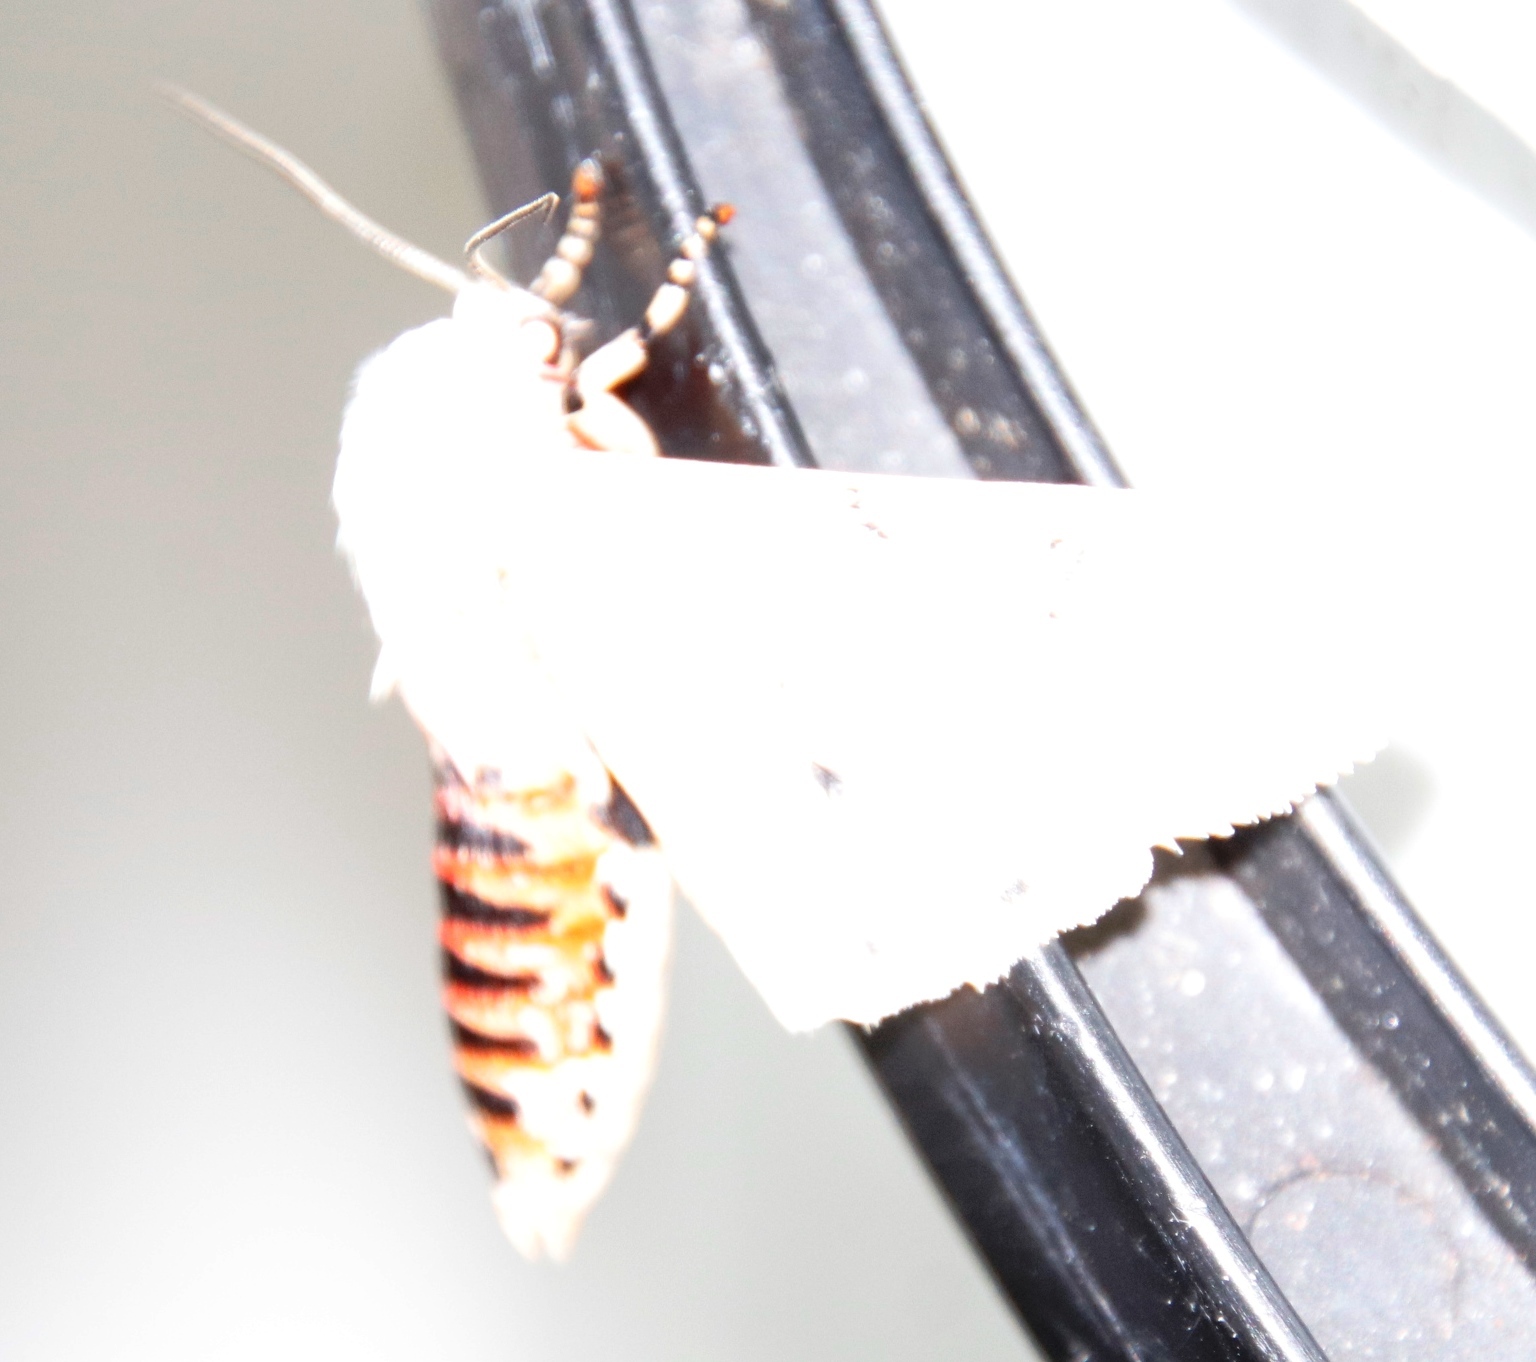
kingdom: Animalia
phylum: Arthropoda
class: Insecta
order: Lepidoptera
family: Erebidae
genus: Rhodogastria
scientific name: Rhodogastria amasis
